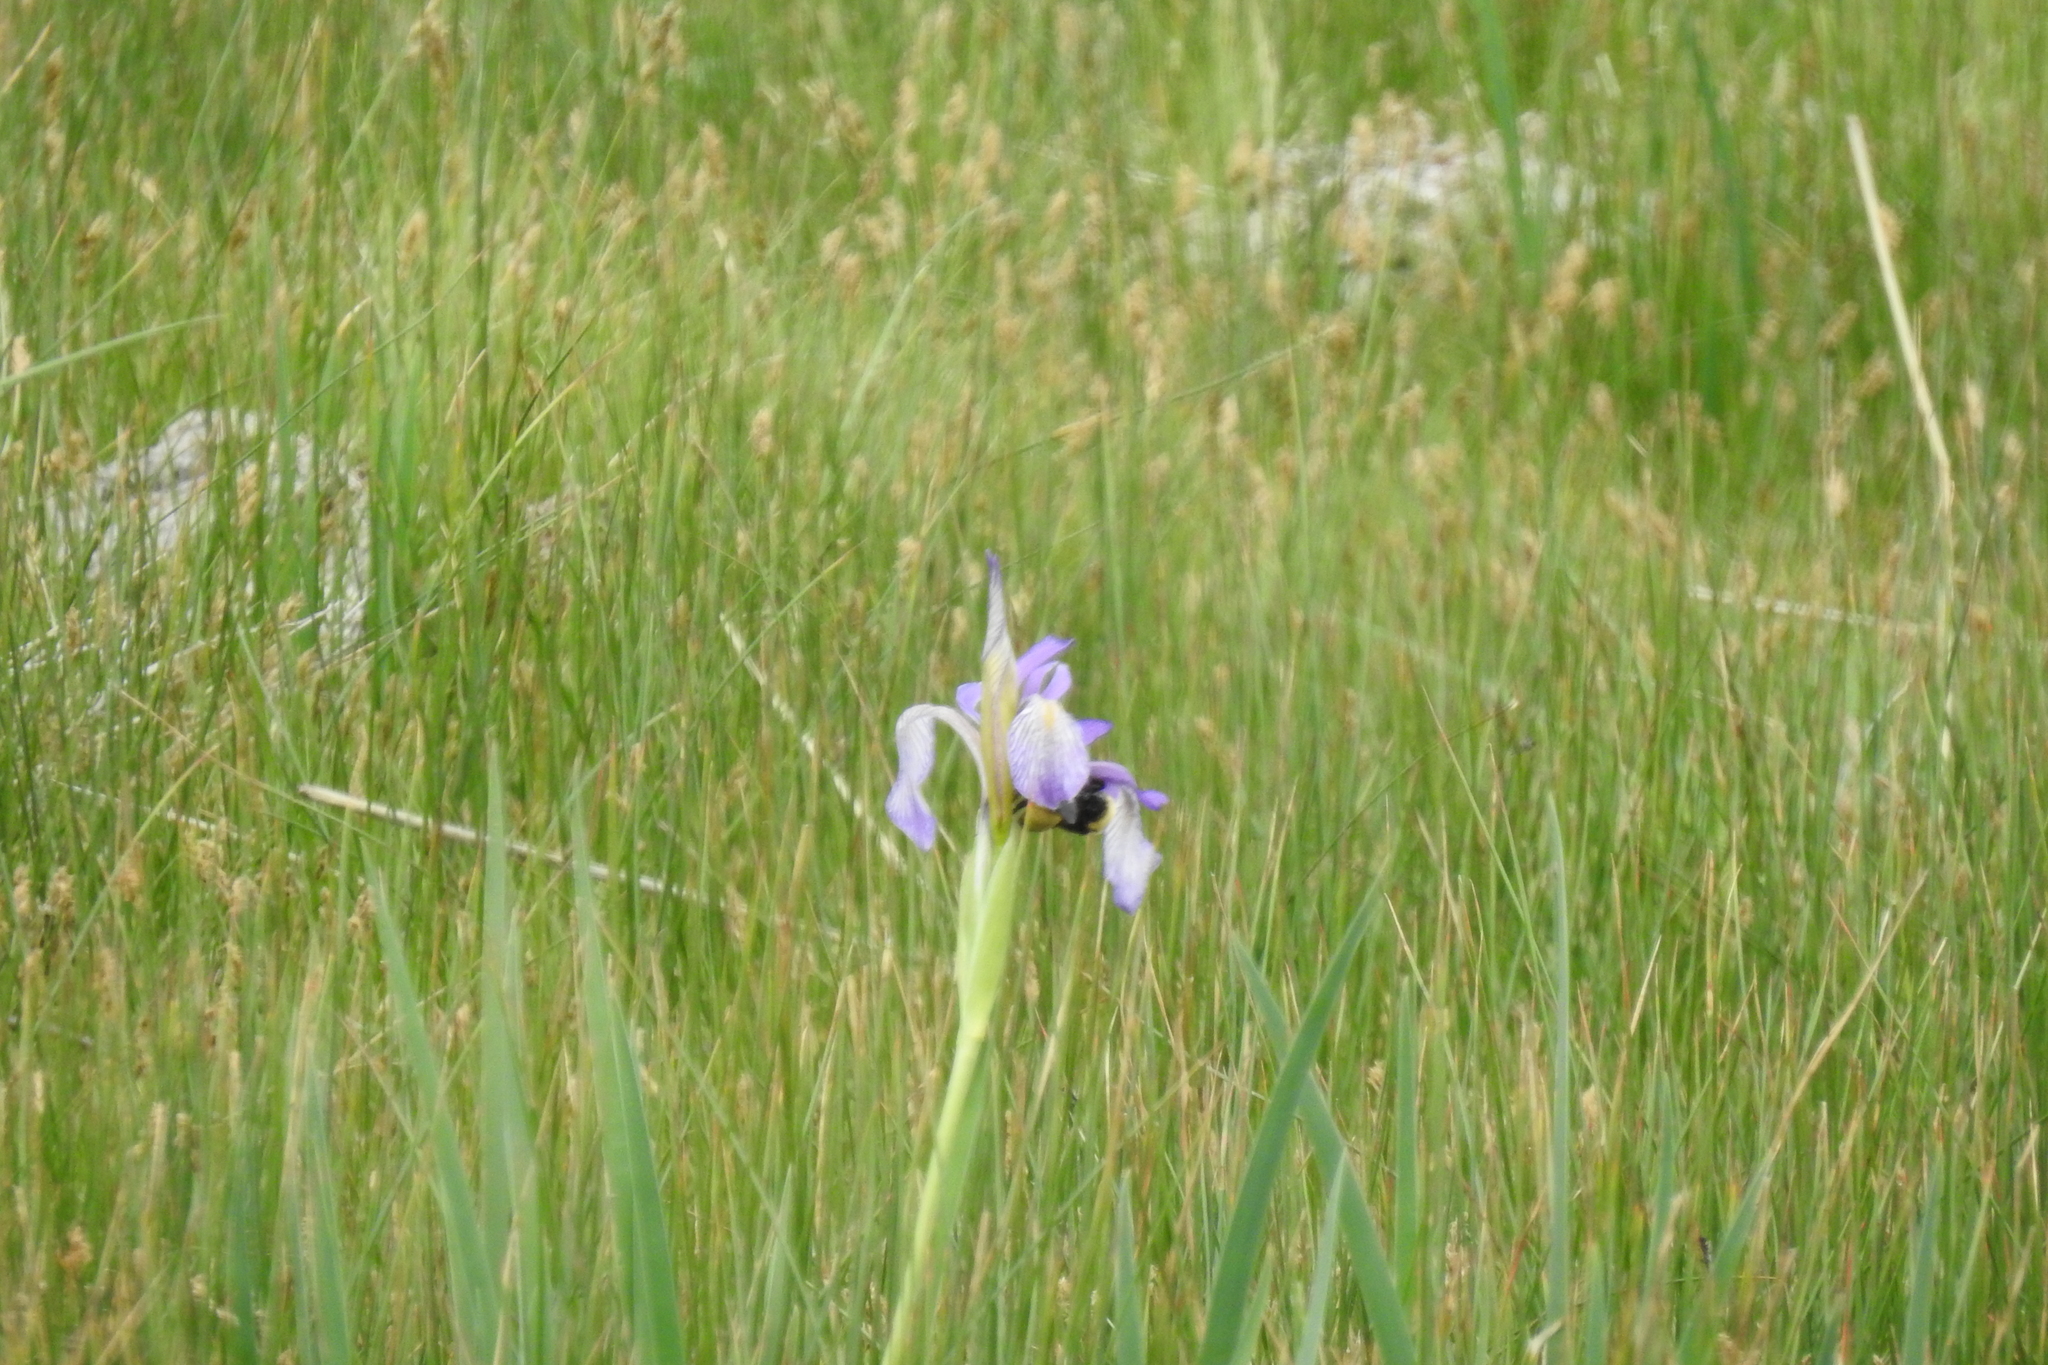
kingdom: Plantae
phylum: Tracheophyta
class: Liliopsida
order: Asparagales
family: Iridaceae
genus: Iris
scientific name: Iris missouriensis
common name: Rocky mountain iris
